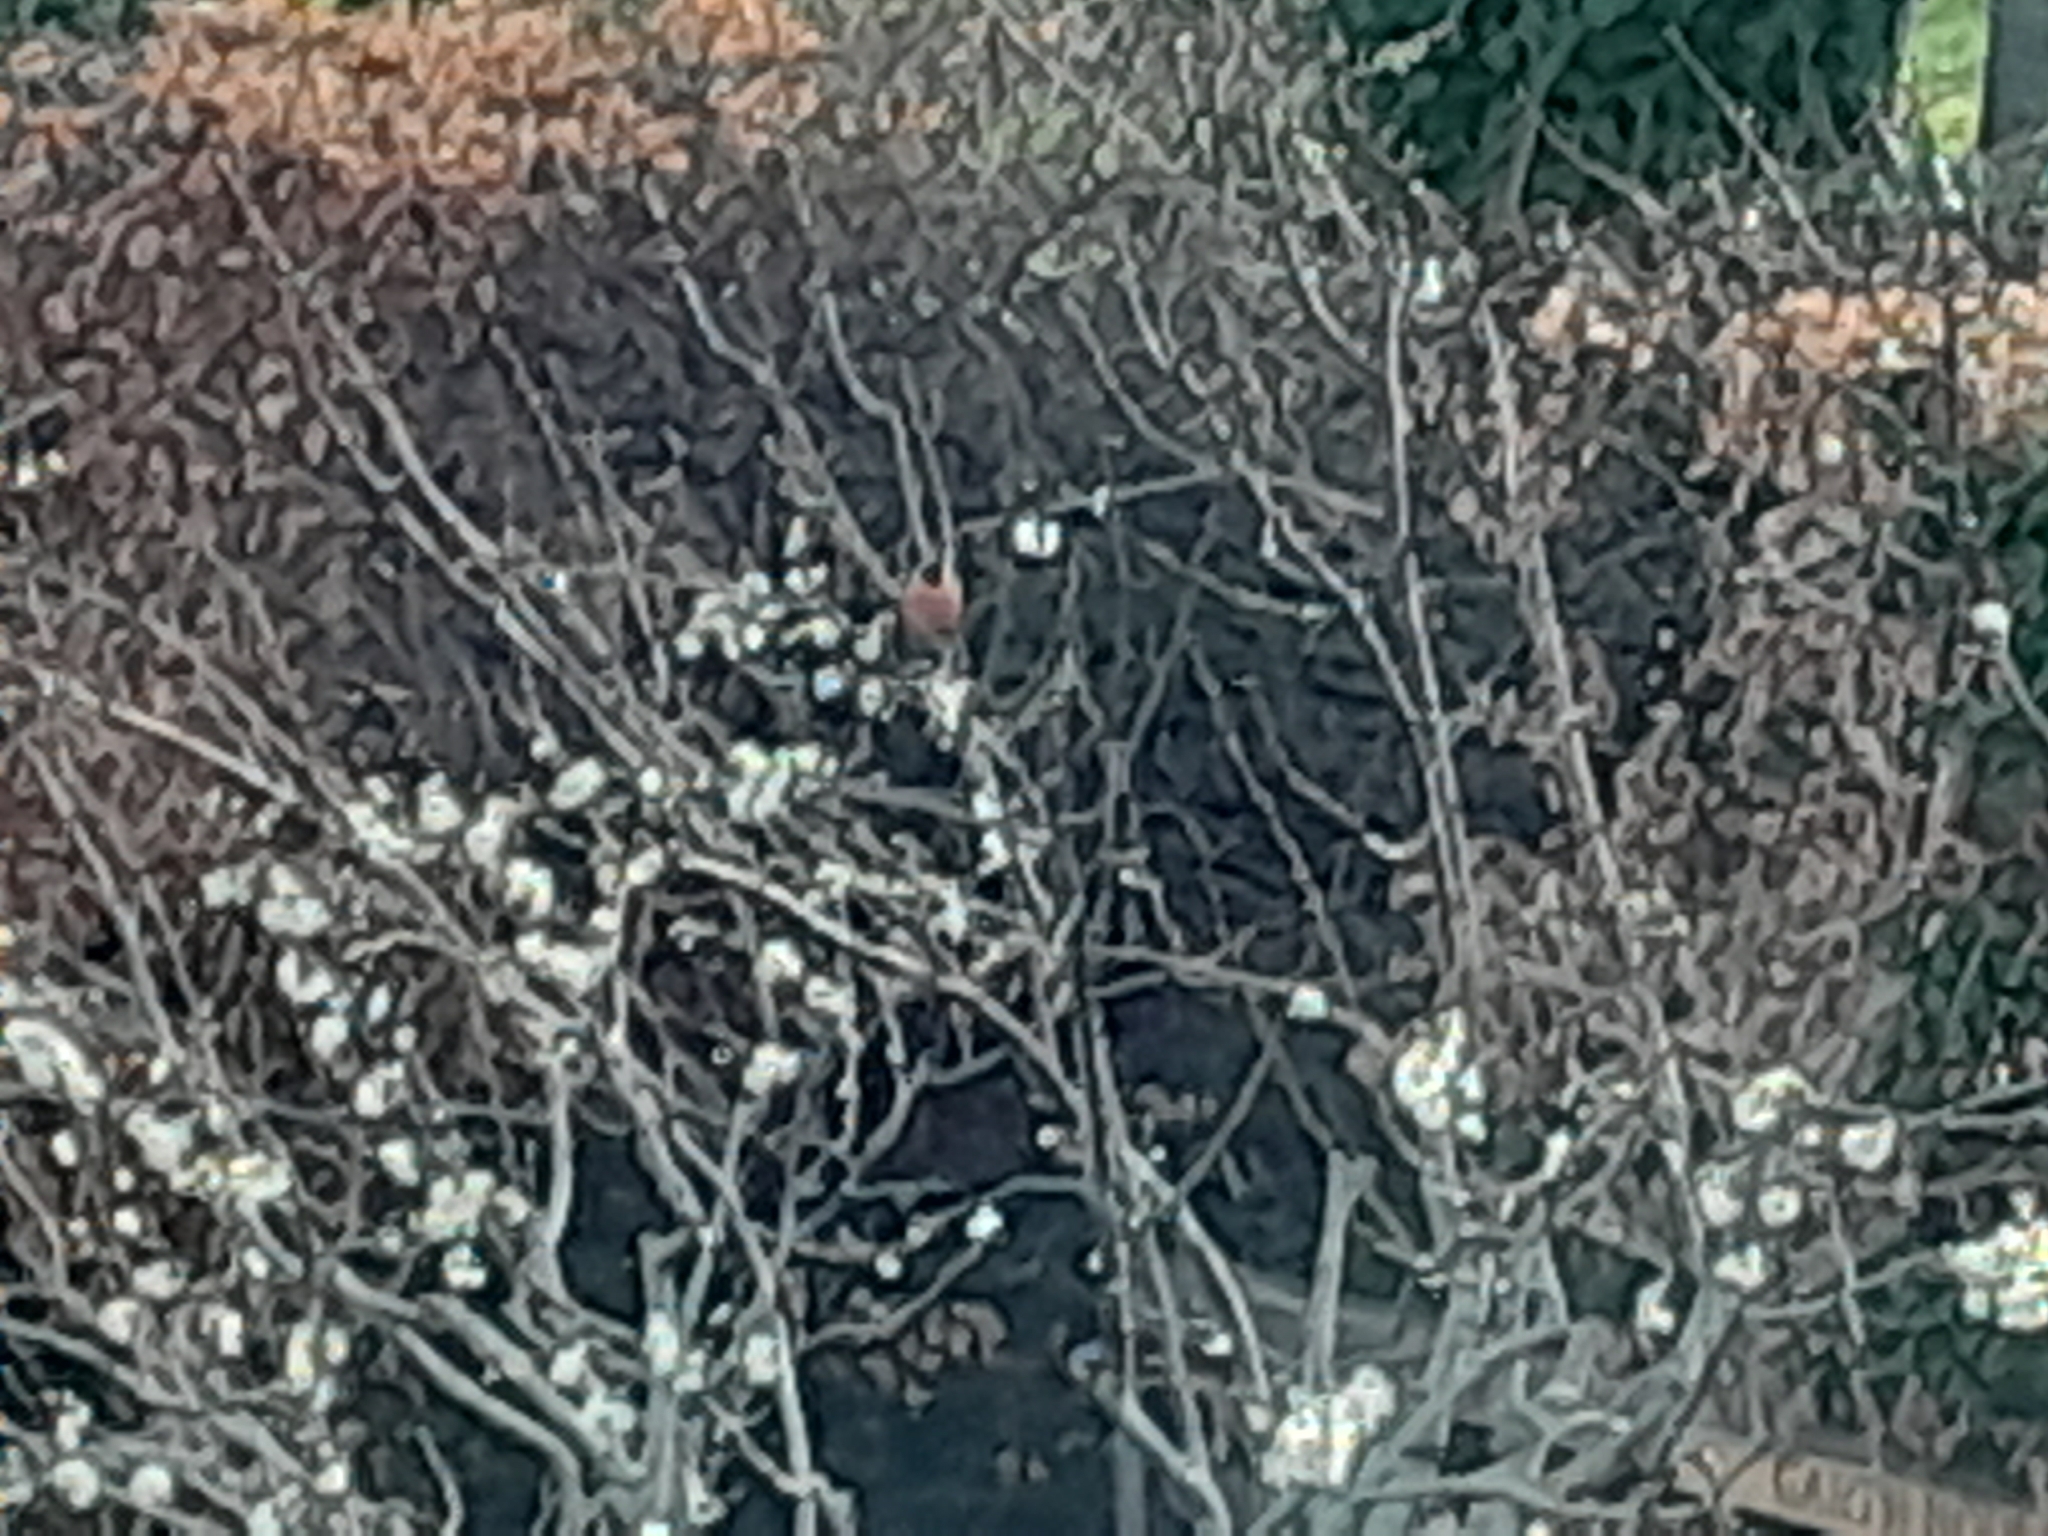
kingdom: Animalia
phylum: Chordata
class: Aves
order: Passeriformes
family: Fringillidae
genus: Pyrrhula
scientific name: Pyrrhula pyrrhula
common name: Eurasian bullfinch
